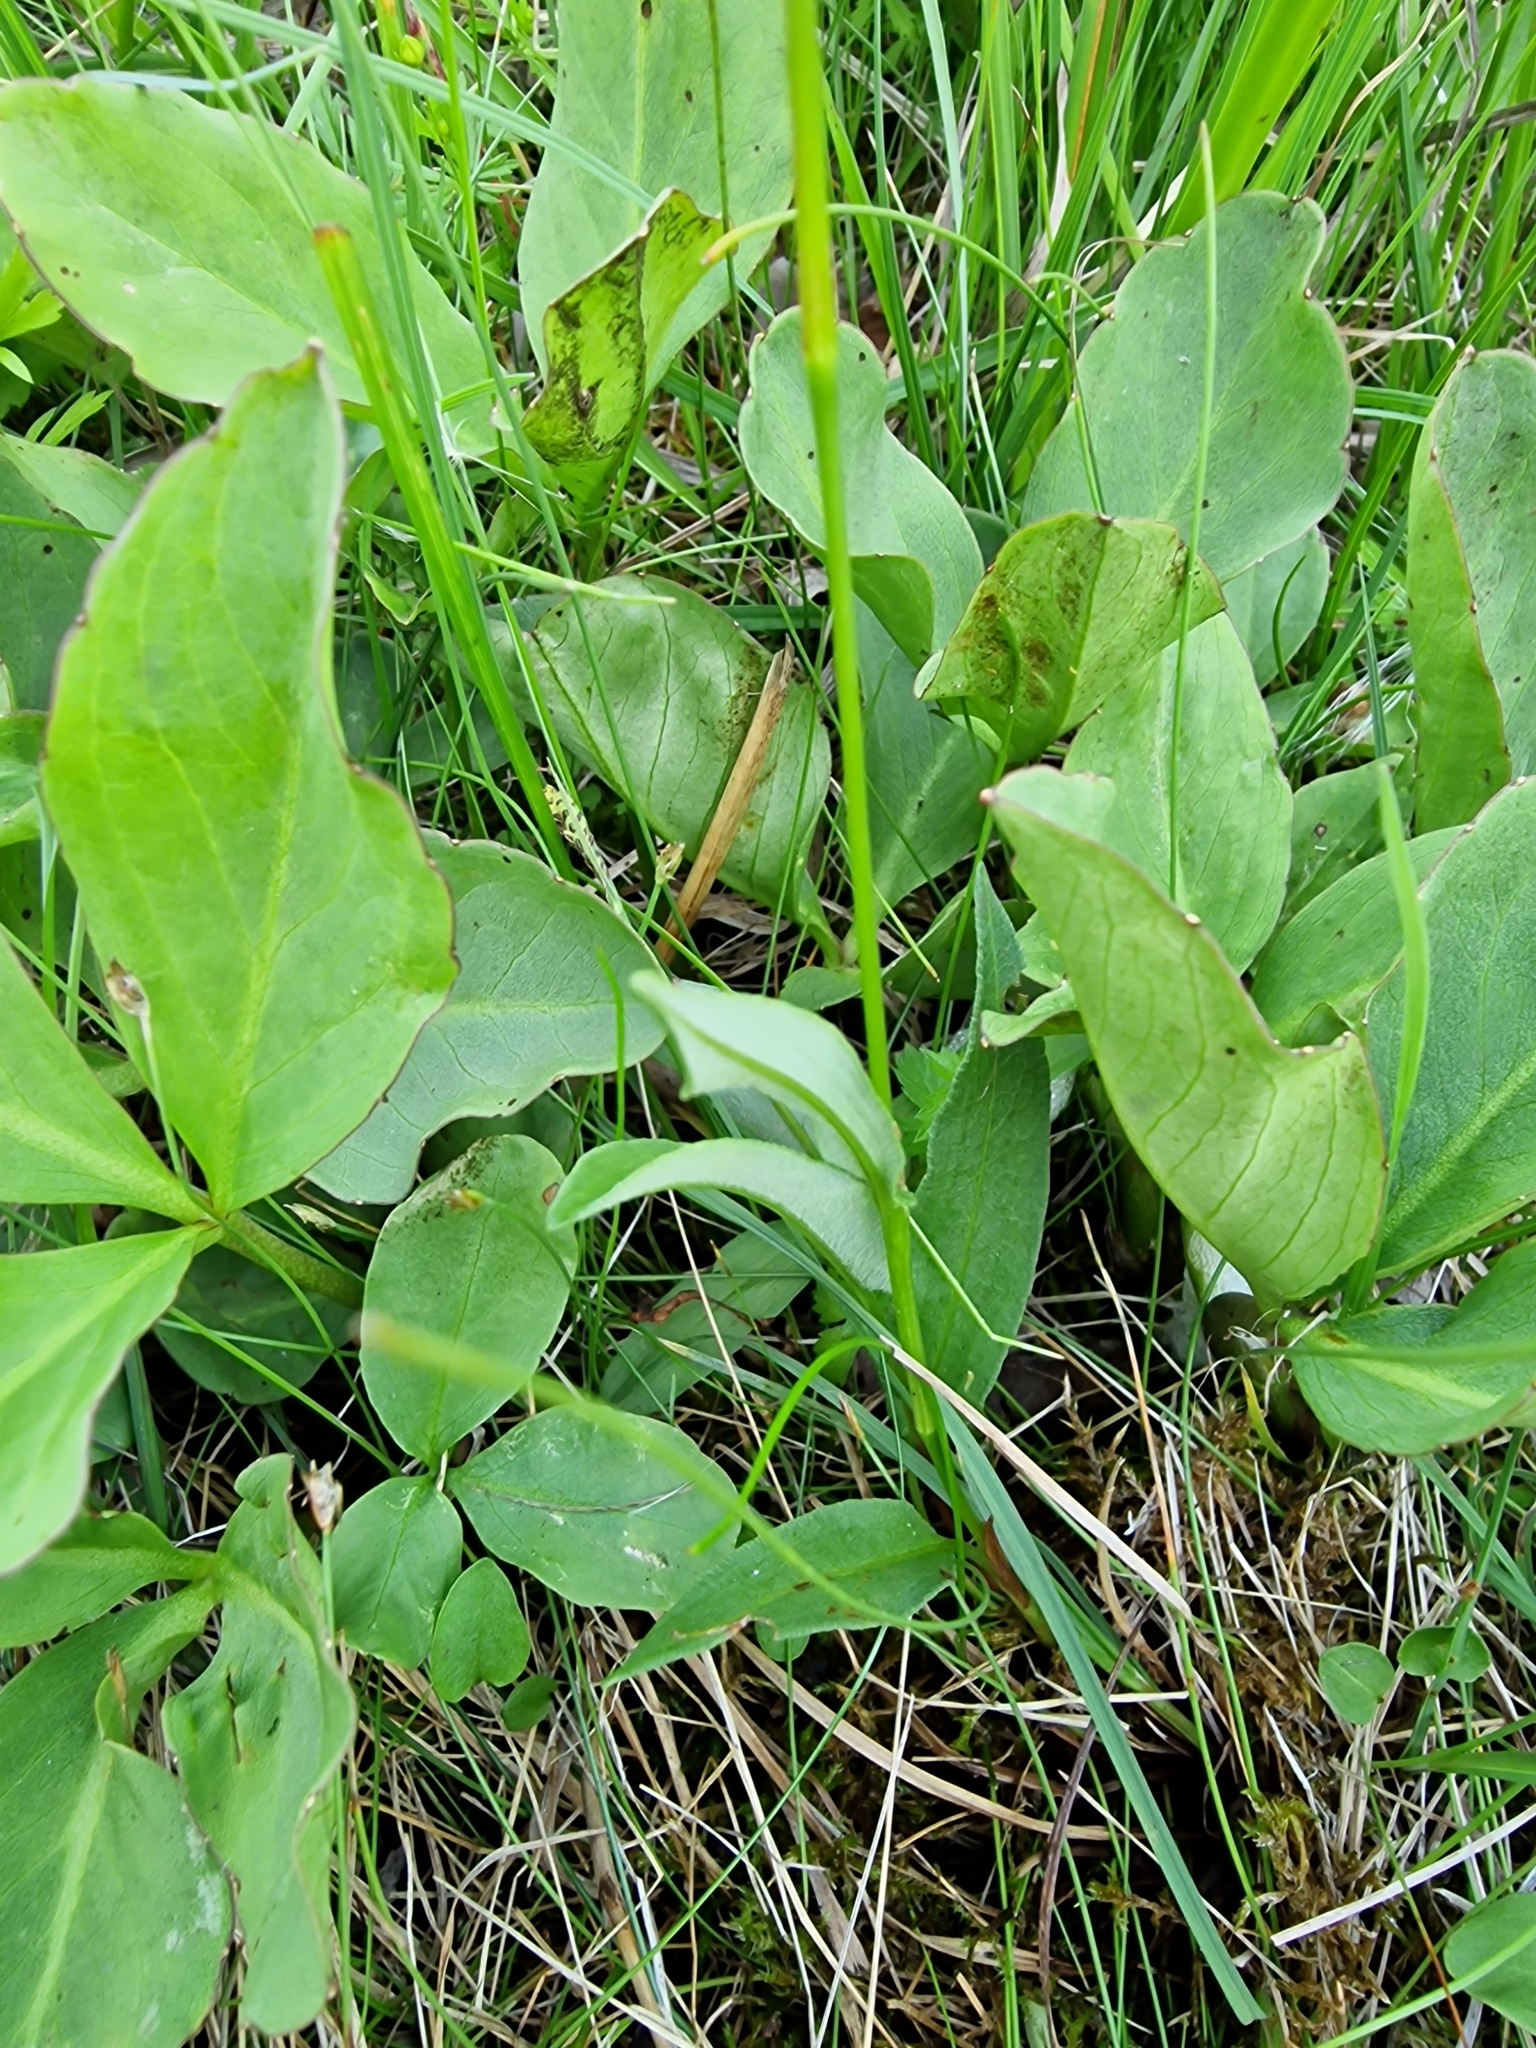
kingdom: Plantae
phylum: Tracheophyta
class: Magnoliopsida
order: Caryophyllales
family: Polygonaceae
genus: Bistorta
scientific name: Bistorta vivipara
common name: Alpine bistort
